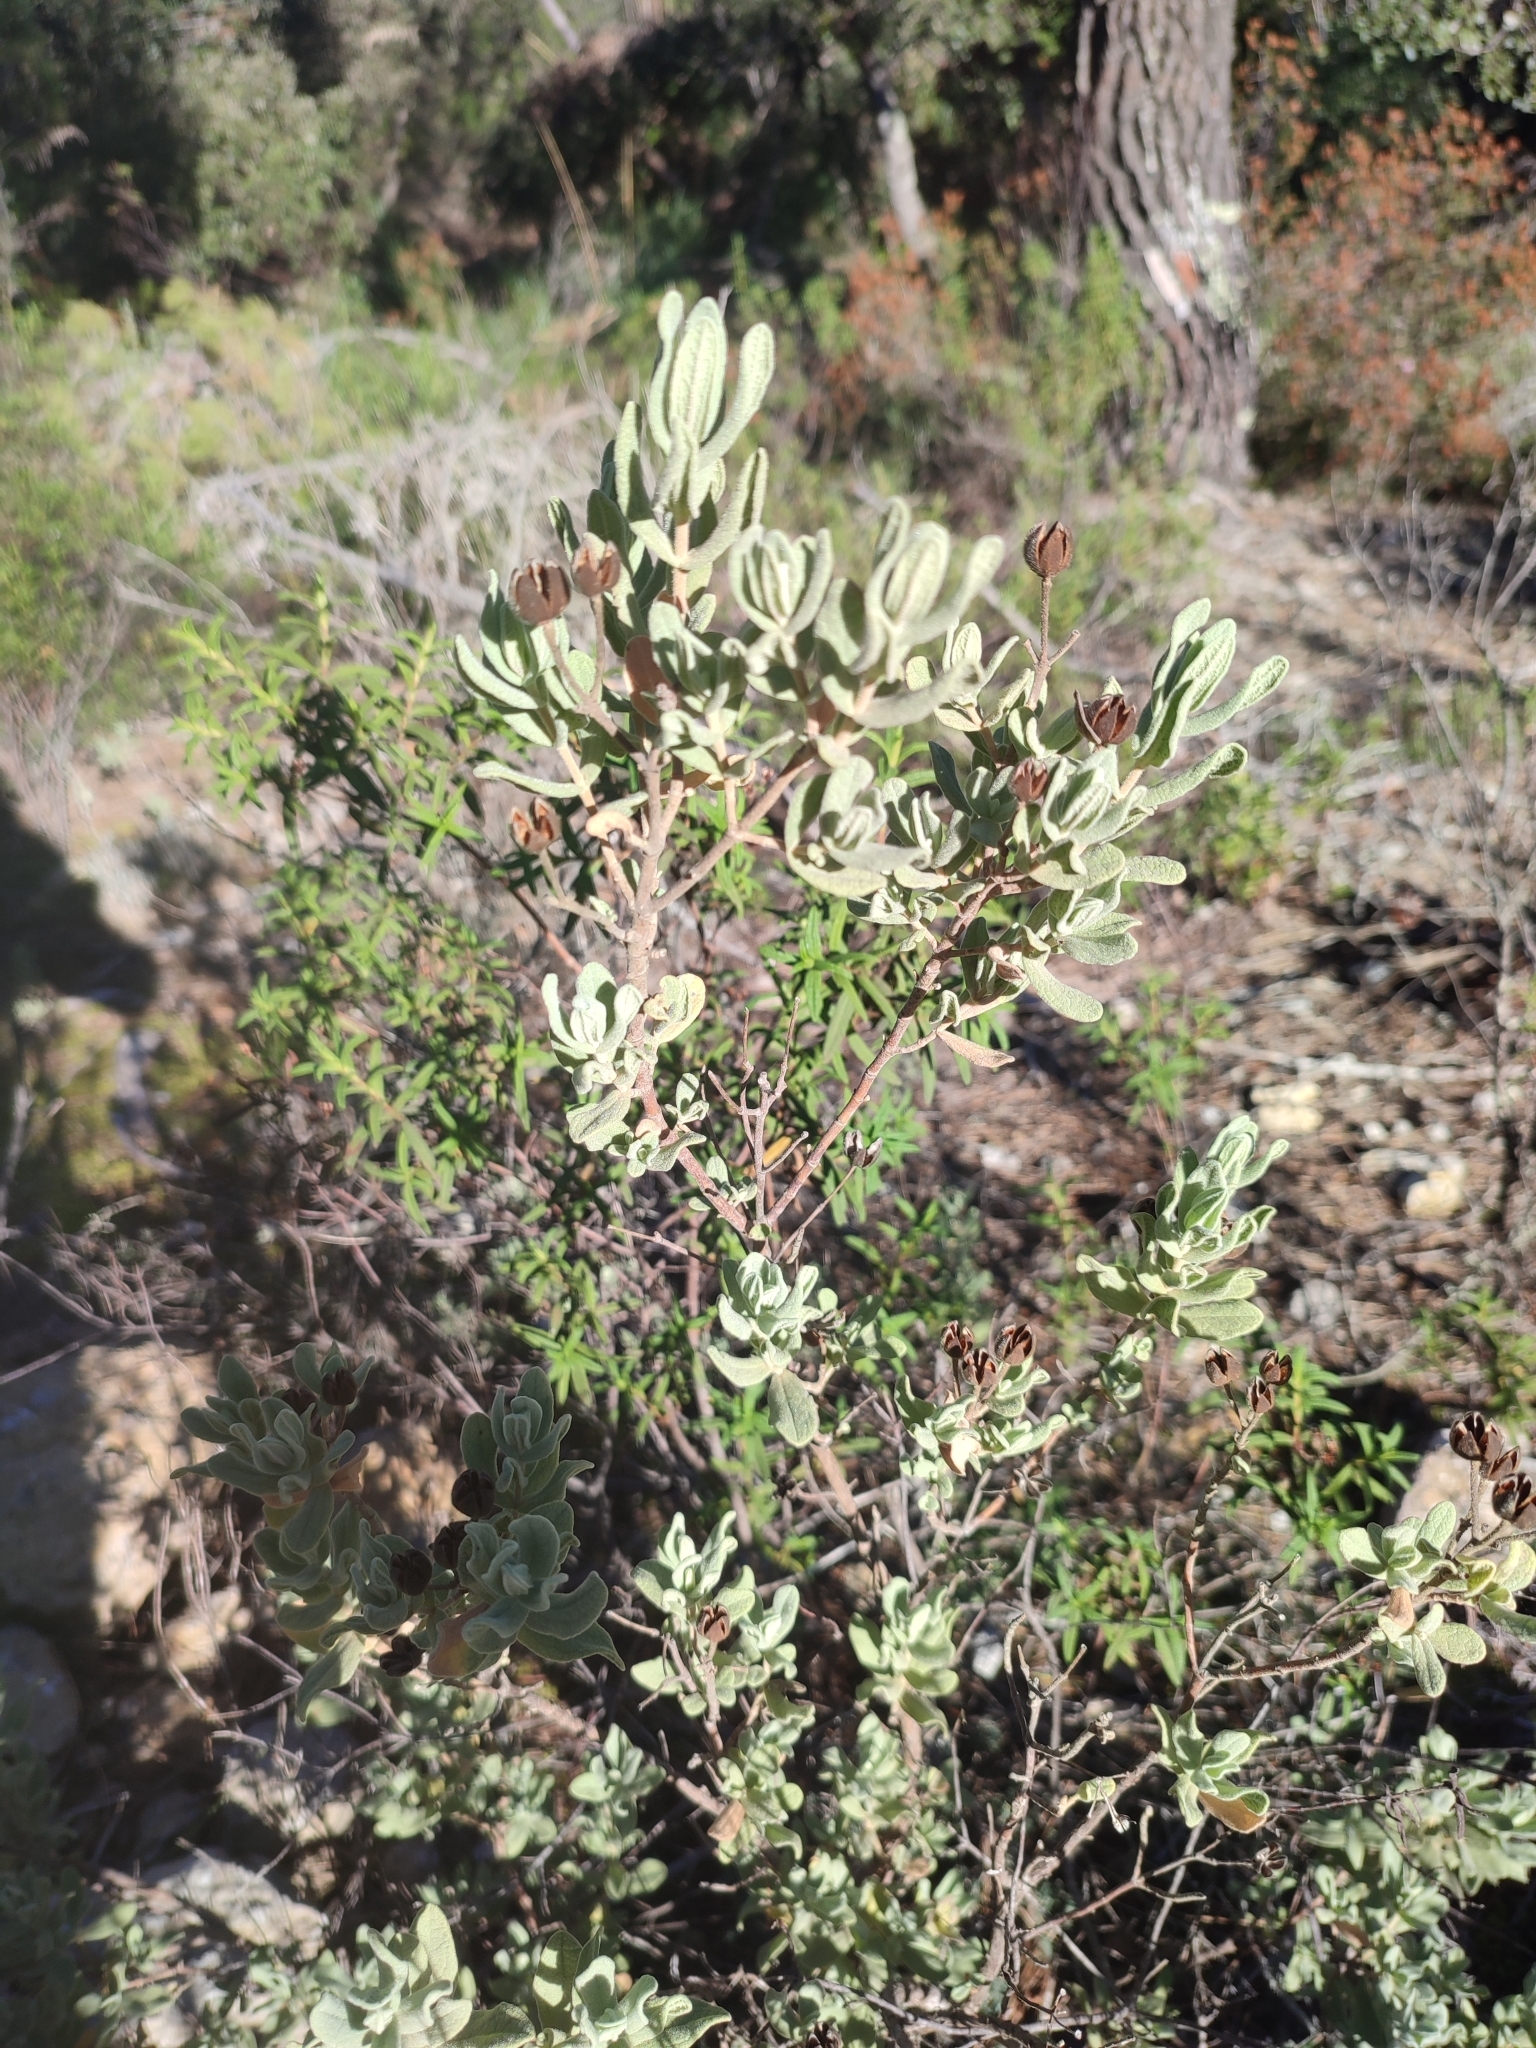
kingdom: Plantae
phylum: Tracheophyta
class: Magnoliopsida
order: Malvales
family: Cistaceae
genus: Cistus
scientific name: Cistus albidus
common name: White-leaf rock-rose
